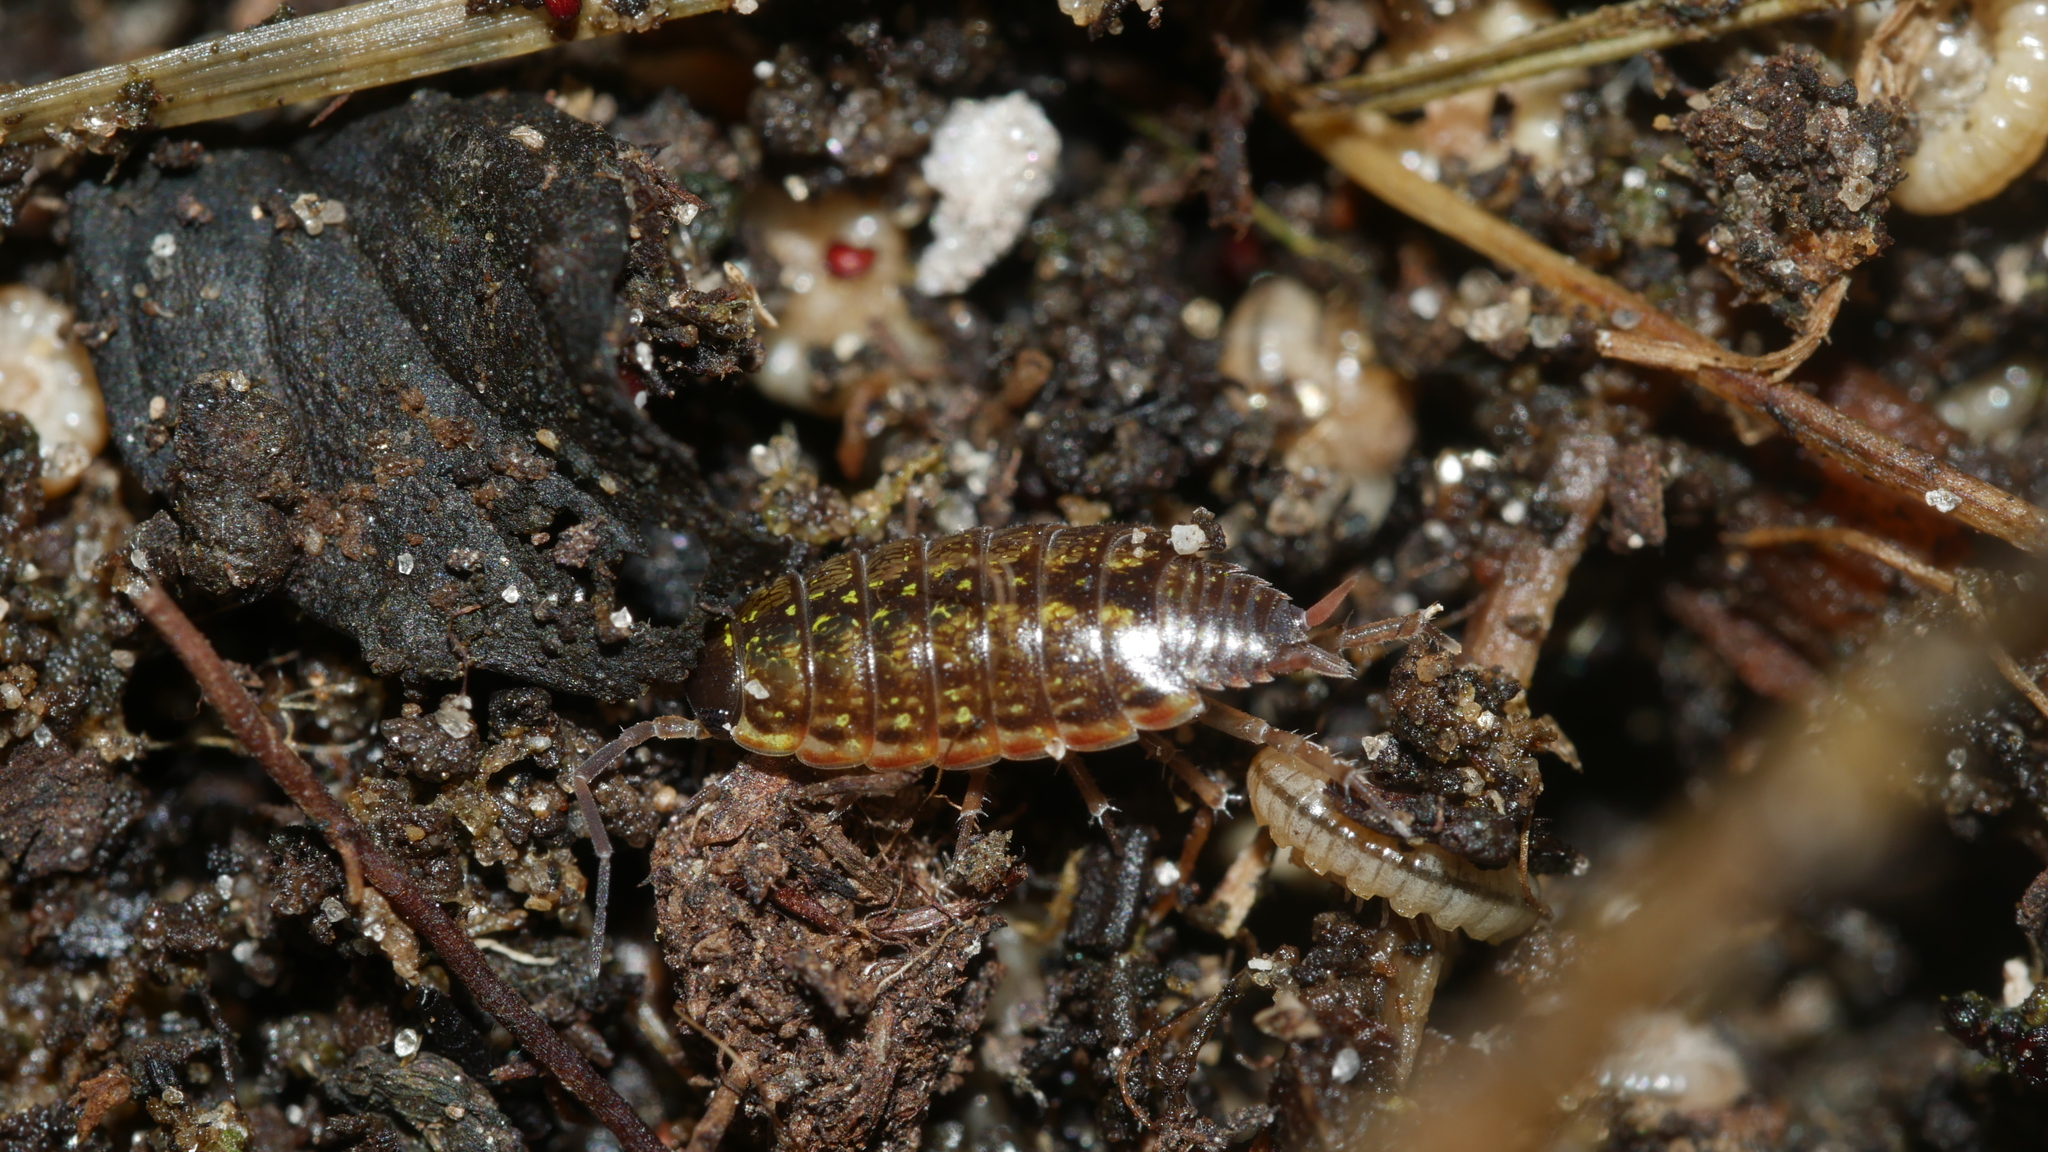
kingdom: Animalia
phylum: Arthropoda
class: Malacostraca
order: Isopoda
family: Philosciidae
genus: Philoscia
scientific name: Philoscia muscorum
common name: Common striped woodlouse
